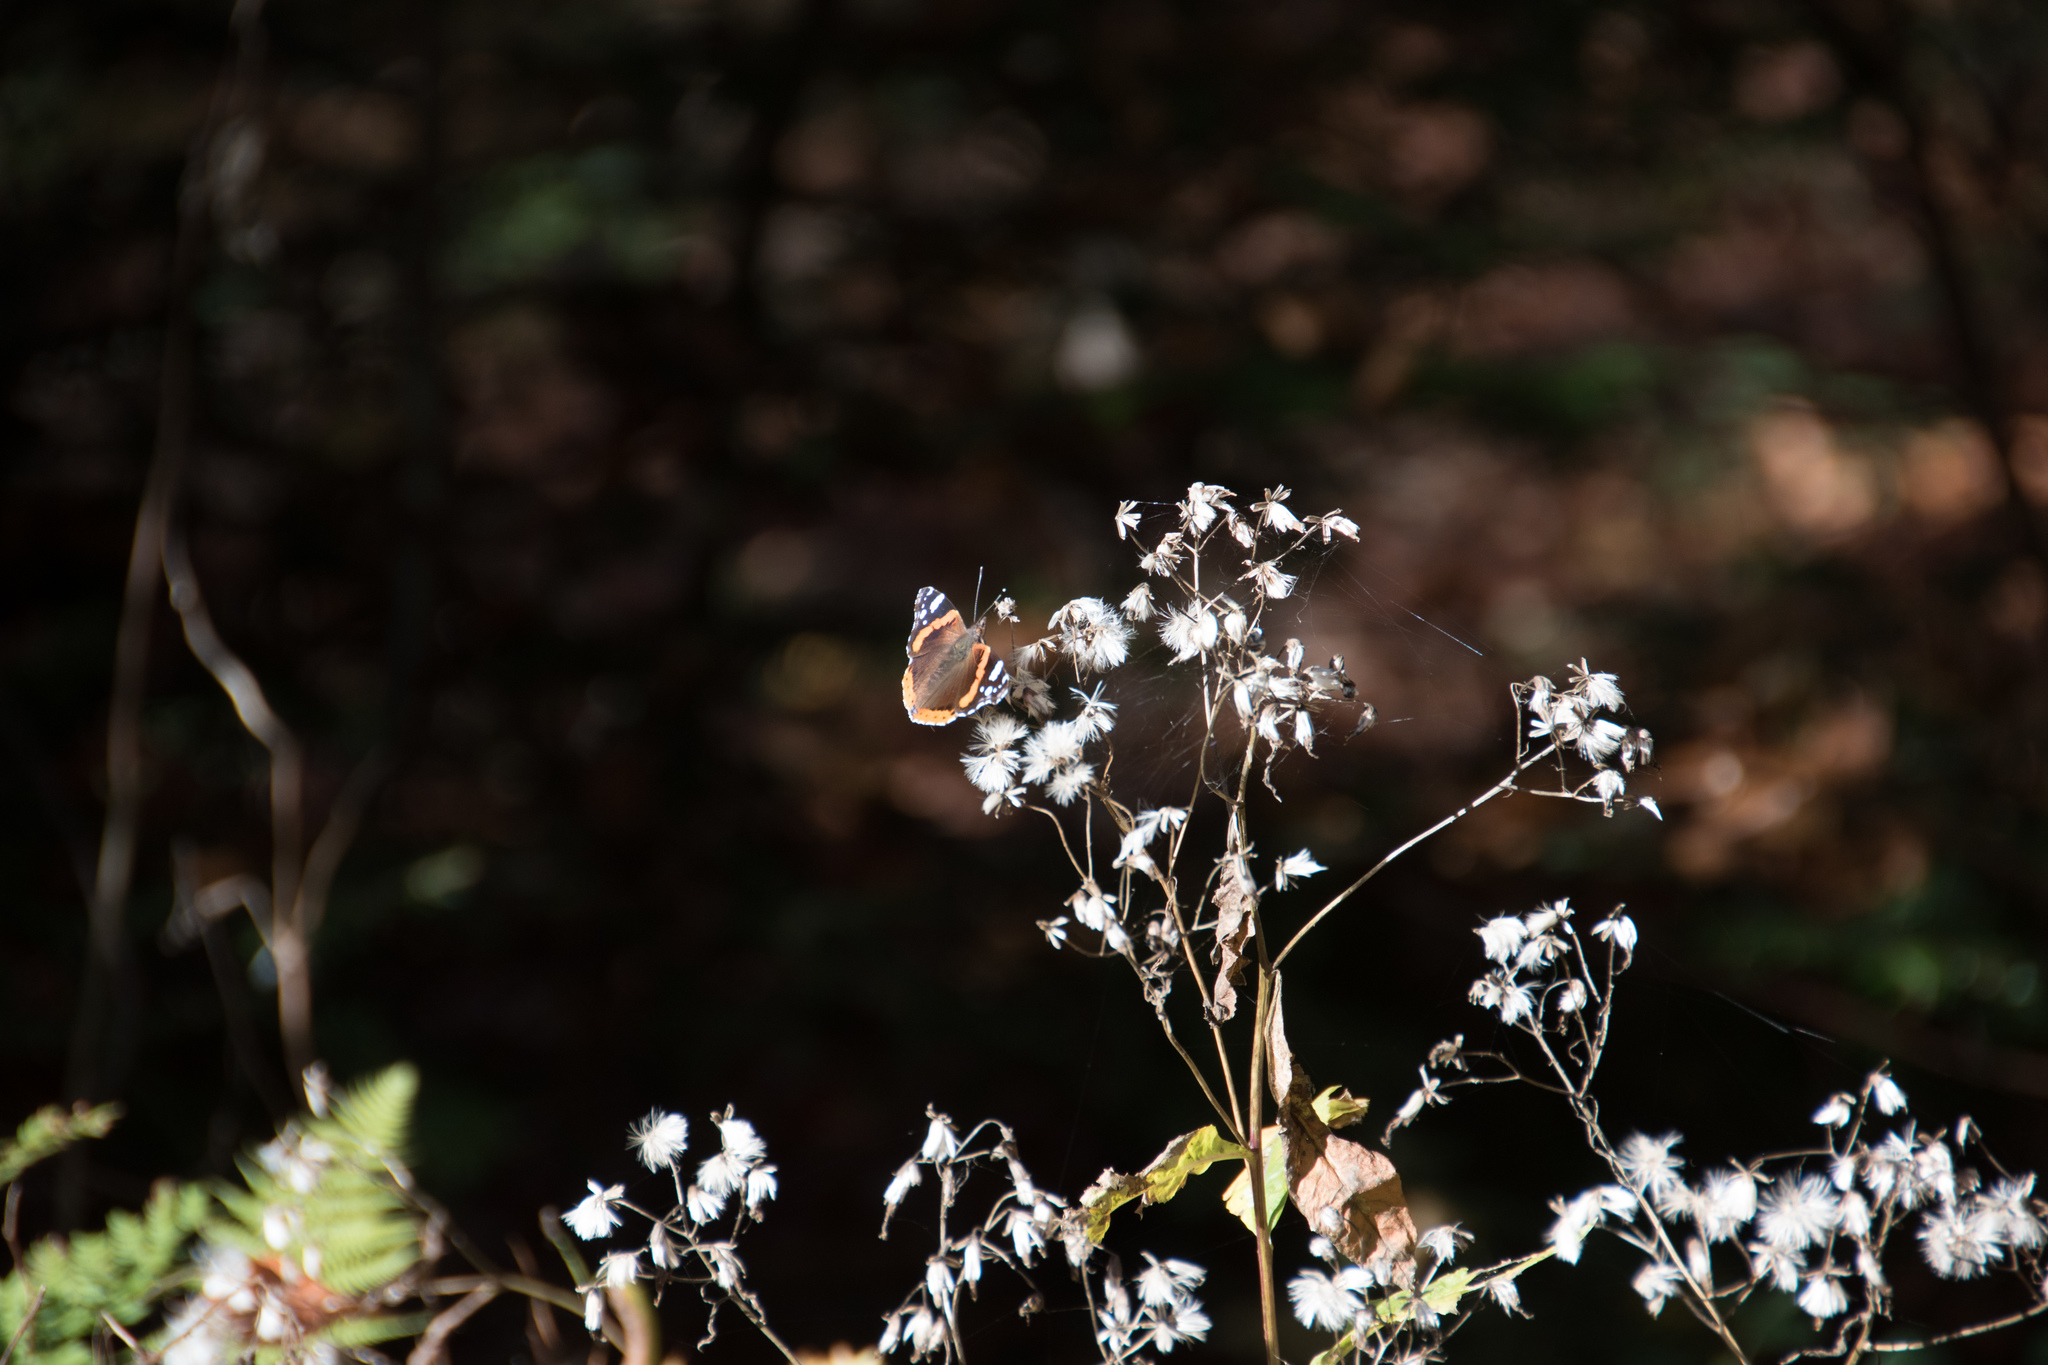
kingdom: Animalia
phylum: Arthropoda
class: Insecta
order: Lepidoptera
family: Nymphalidae
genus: Vanessa
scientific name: Vanessa atalanta
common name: Red admiral
